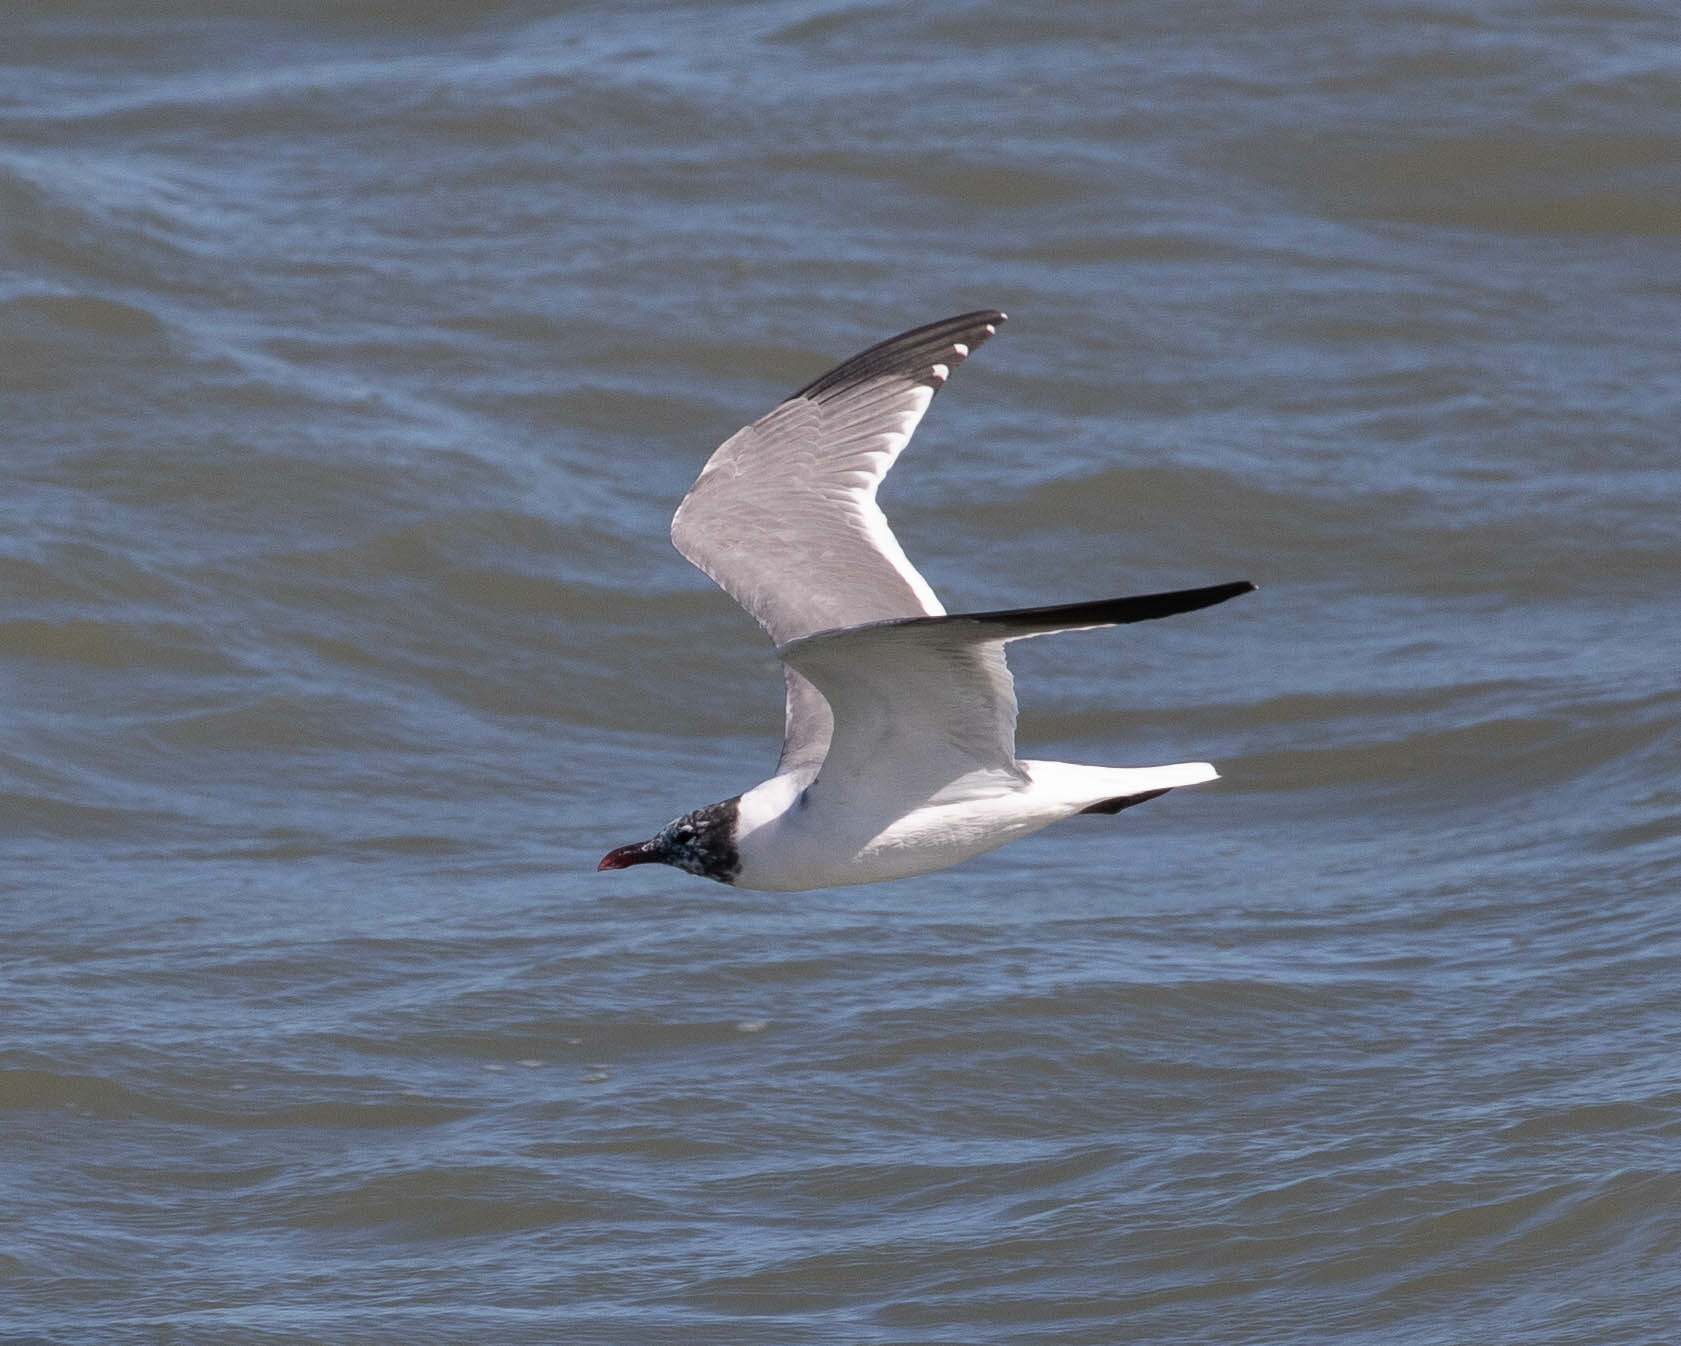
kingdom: Animalia
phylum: Chordata
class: Aves
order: Charadriiformes
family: Laridae
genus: Leucophaeus
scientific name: Leucophaeus atricilla
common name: Laughing gull
